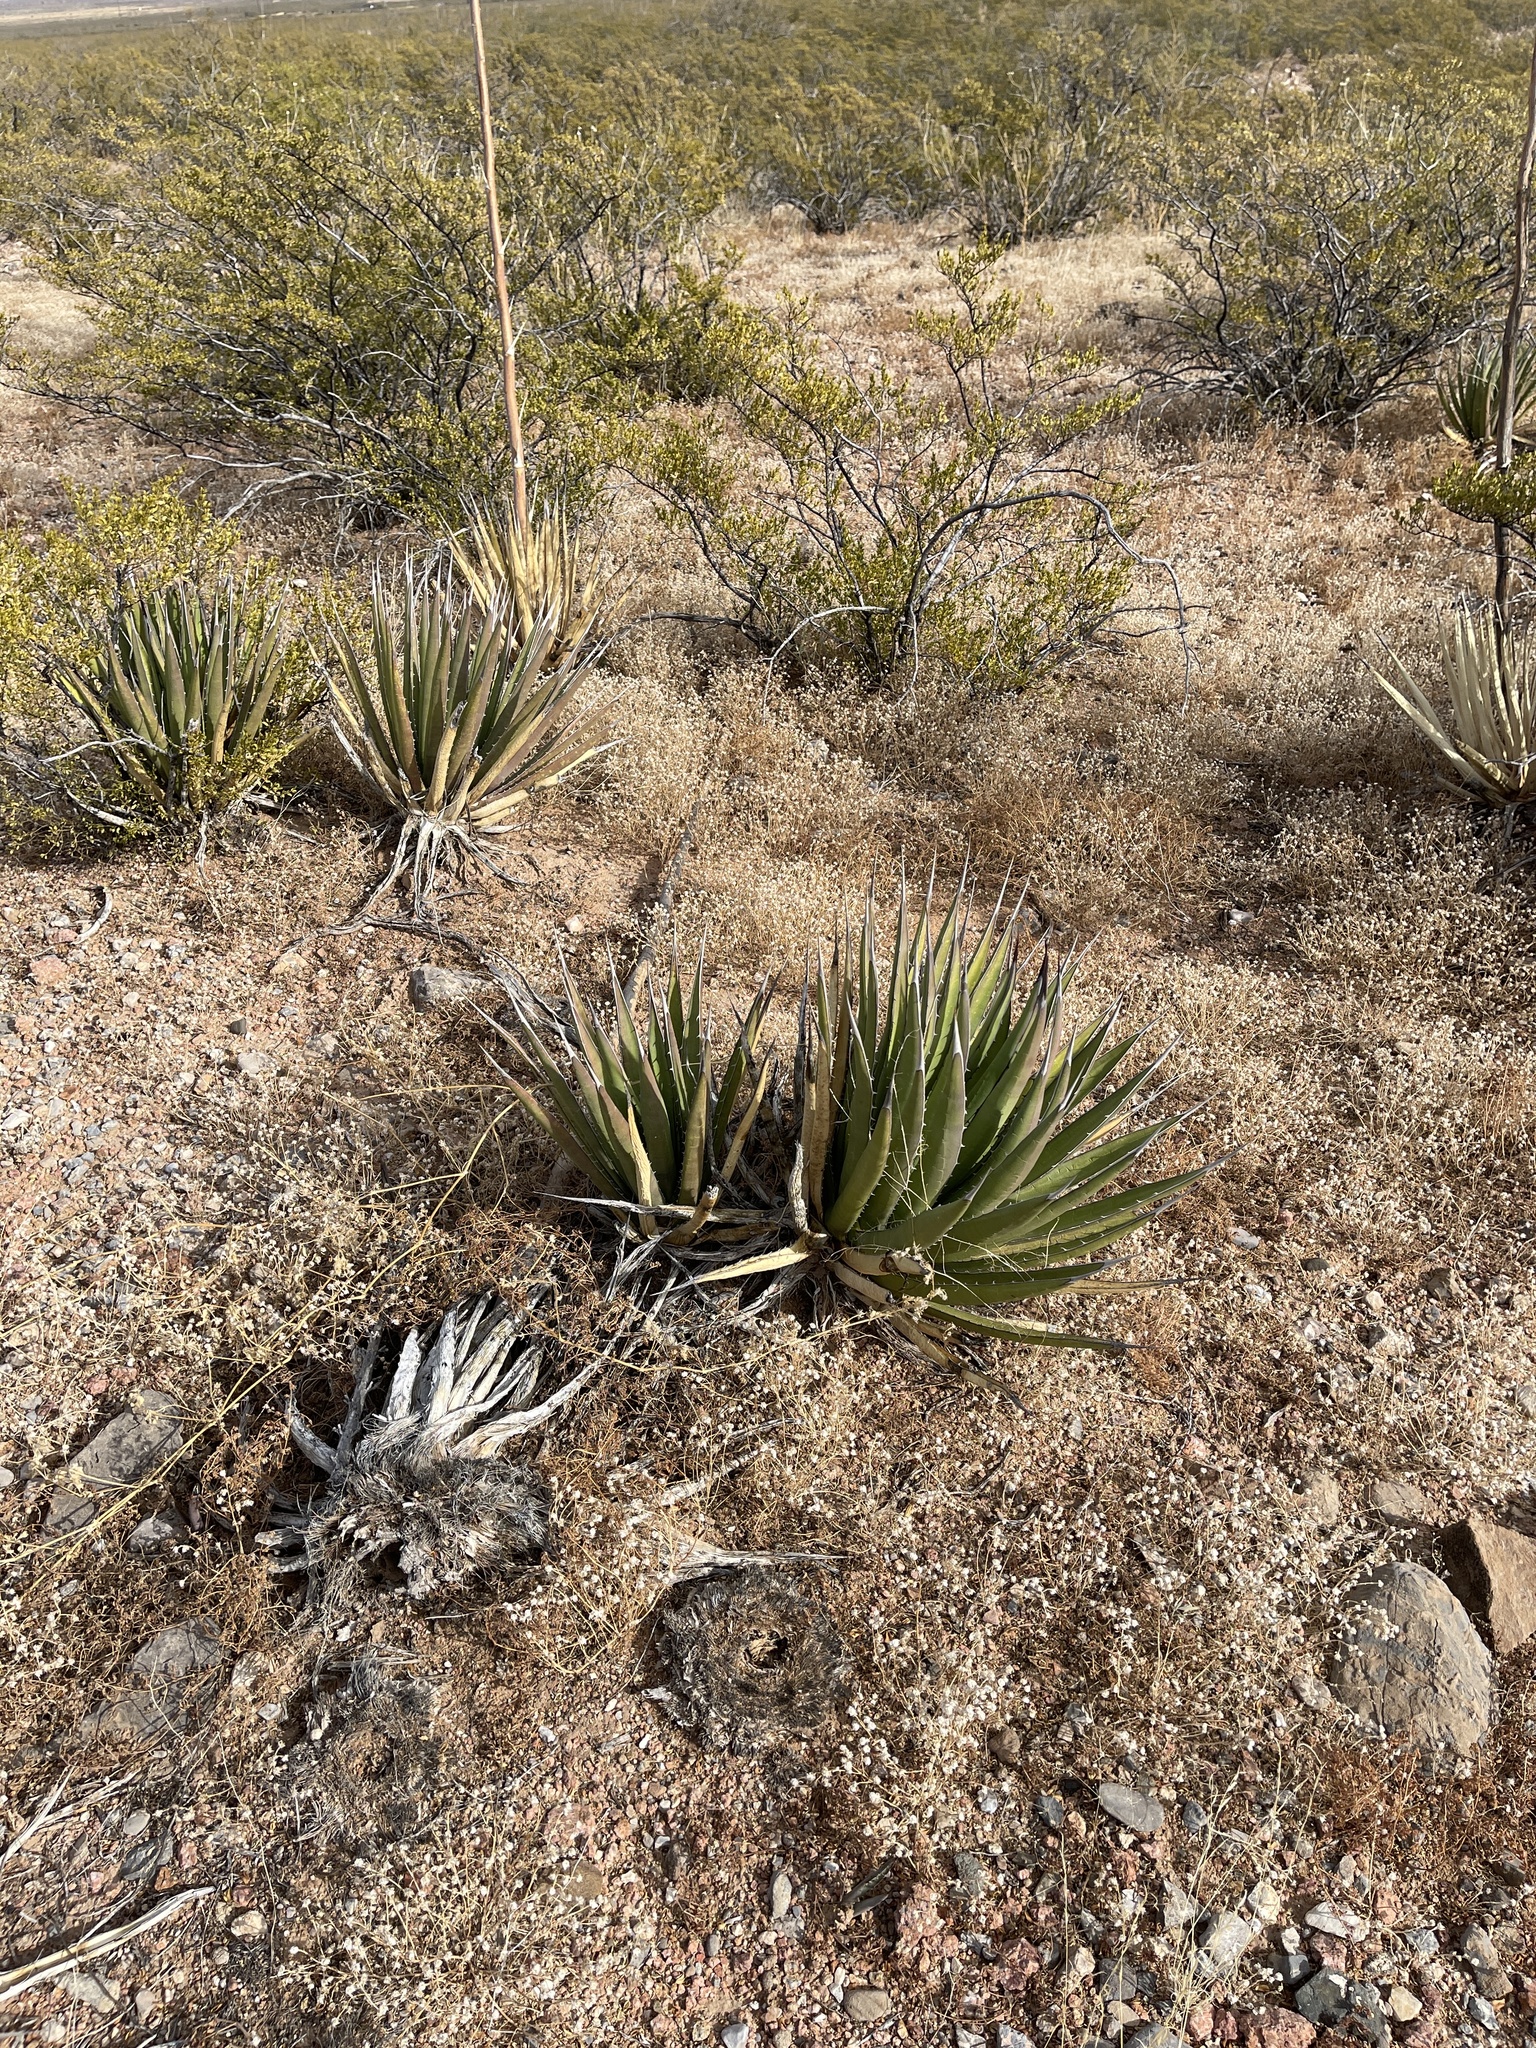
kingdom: Plantae
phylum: Tracheophyta
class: Liliopsida
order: Asparagales
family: Asparagaceae
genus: Agave
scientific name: Agave lechuguilla
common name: Lecheguilla agave
